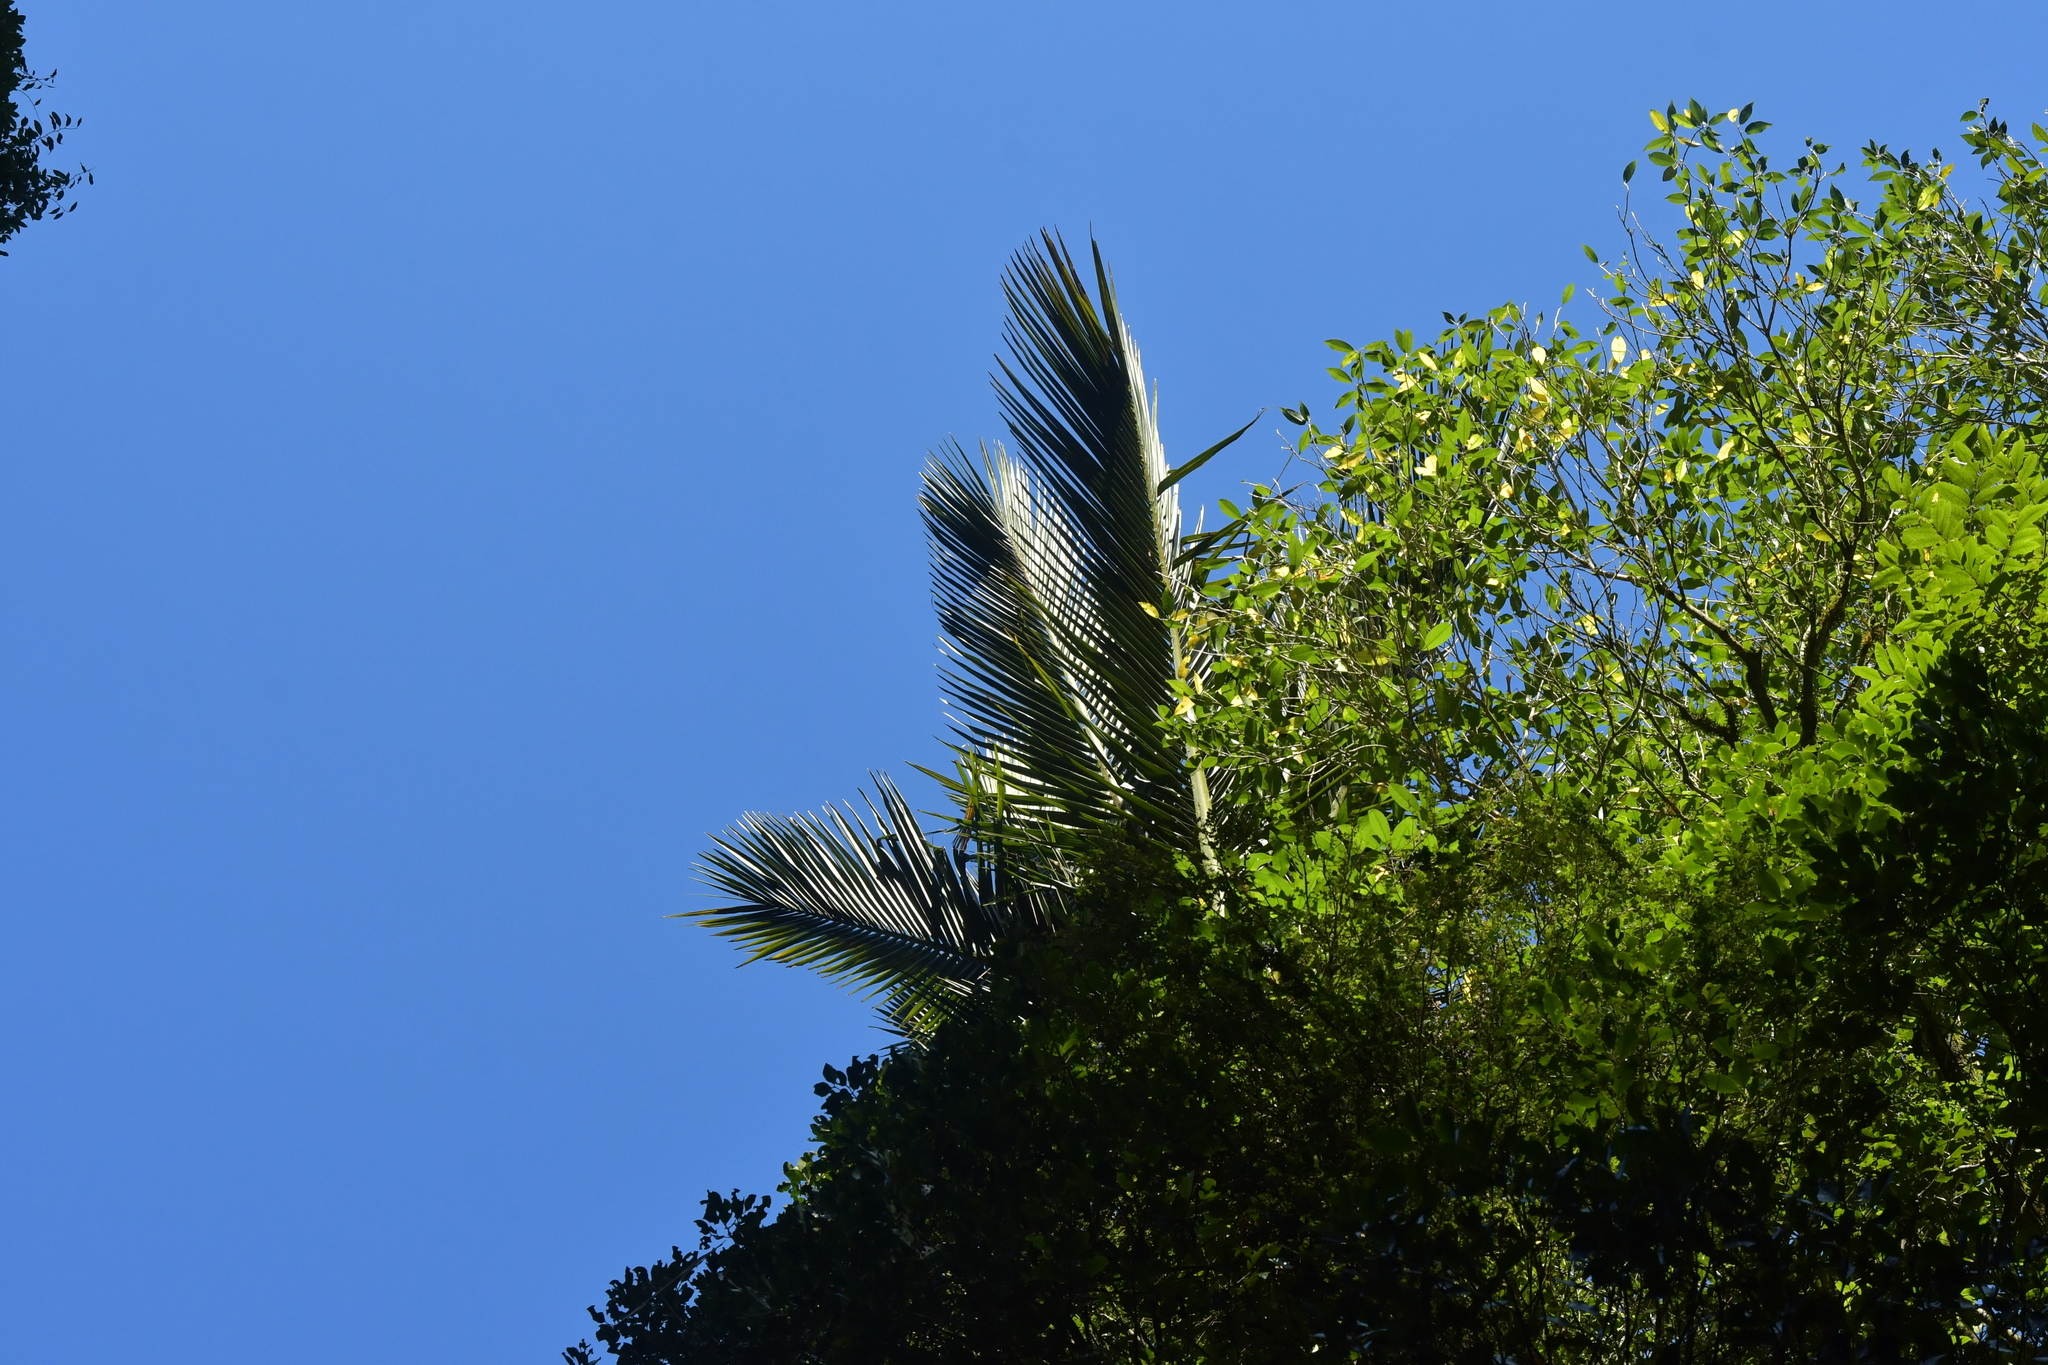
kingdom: Plantae
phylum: Tracheophyta
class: Liliopsida
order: Arecales
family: Arecaceae
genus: Rhopalostylis
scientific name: Rhopalostylis sapida
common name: Feather-duster palm
